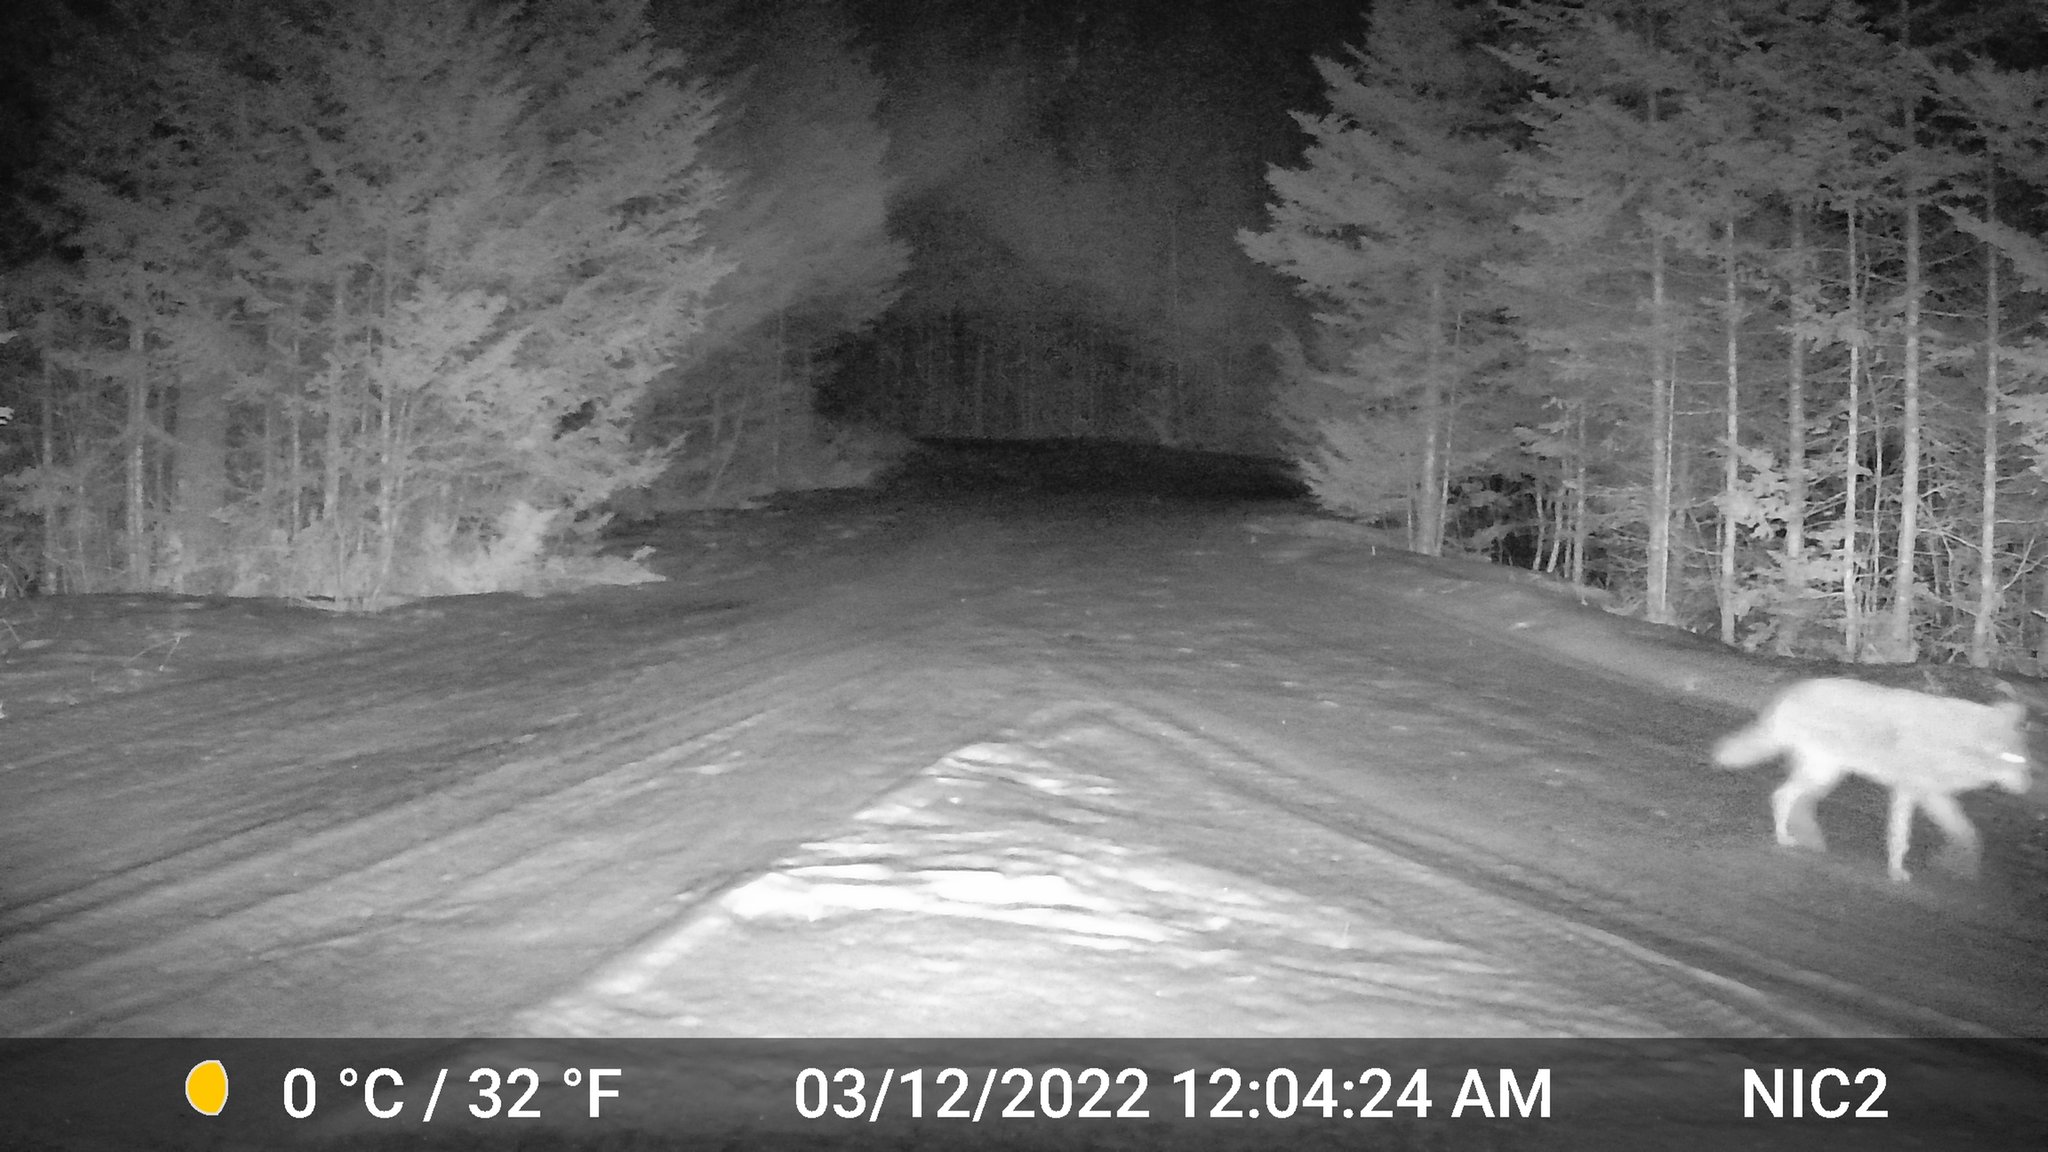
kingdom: Animalia
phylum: Chordata
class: Mammalia
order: Carnivora
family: Canidae
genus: Canis
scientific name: Canis latrans
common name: Coyote
